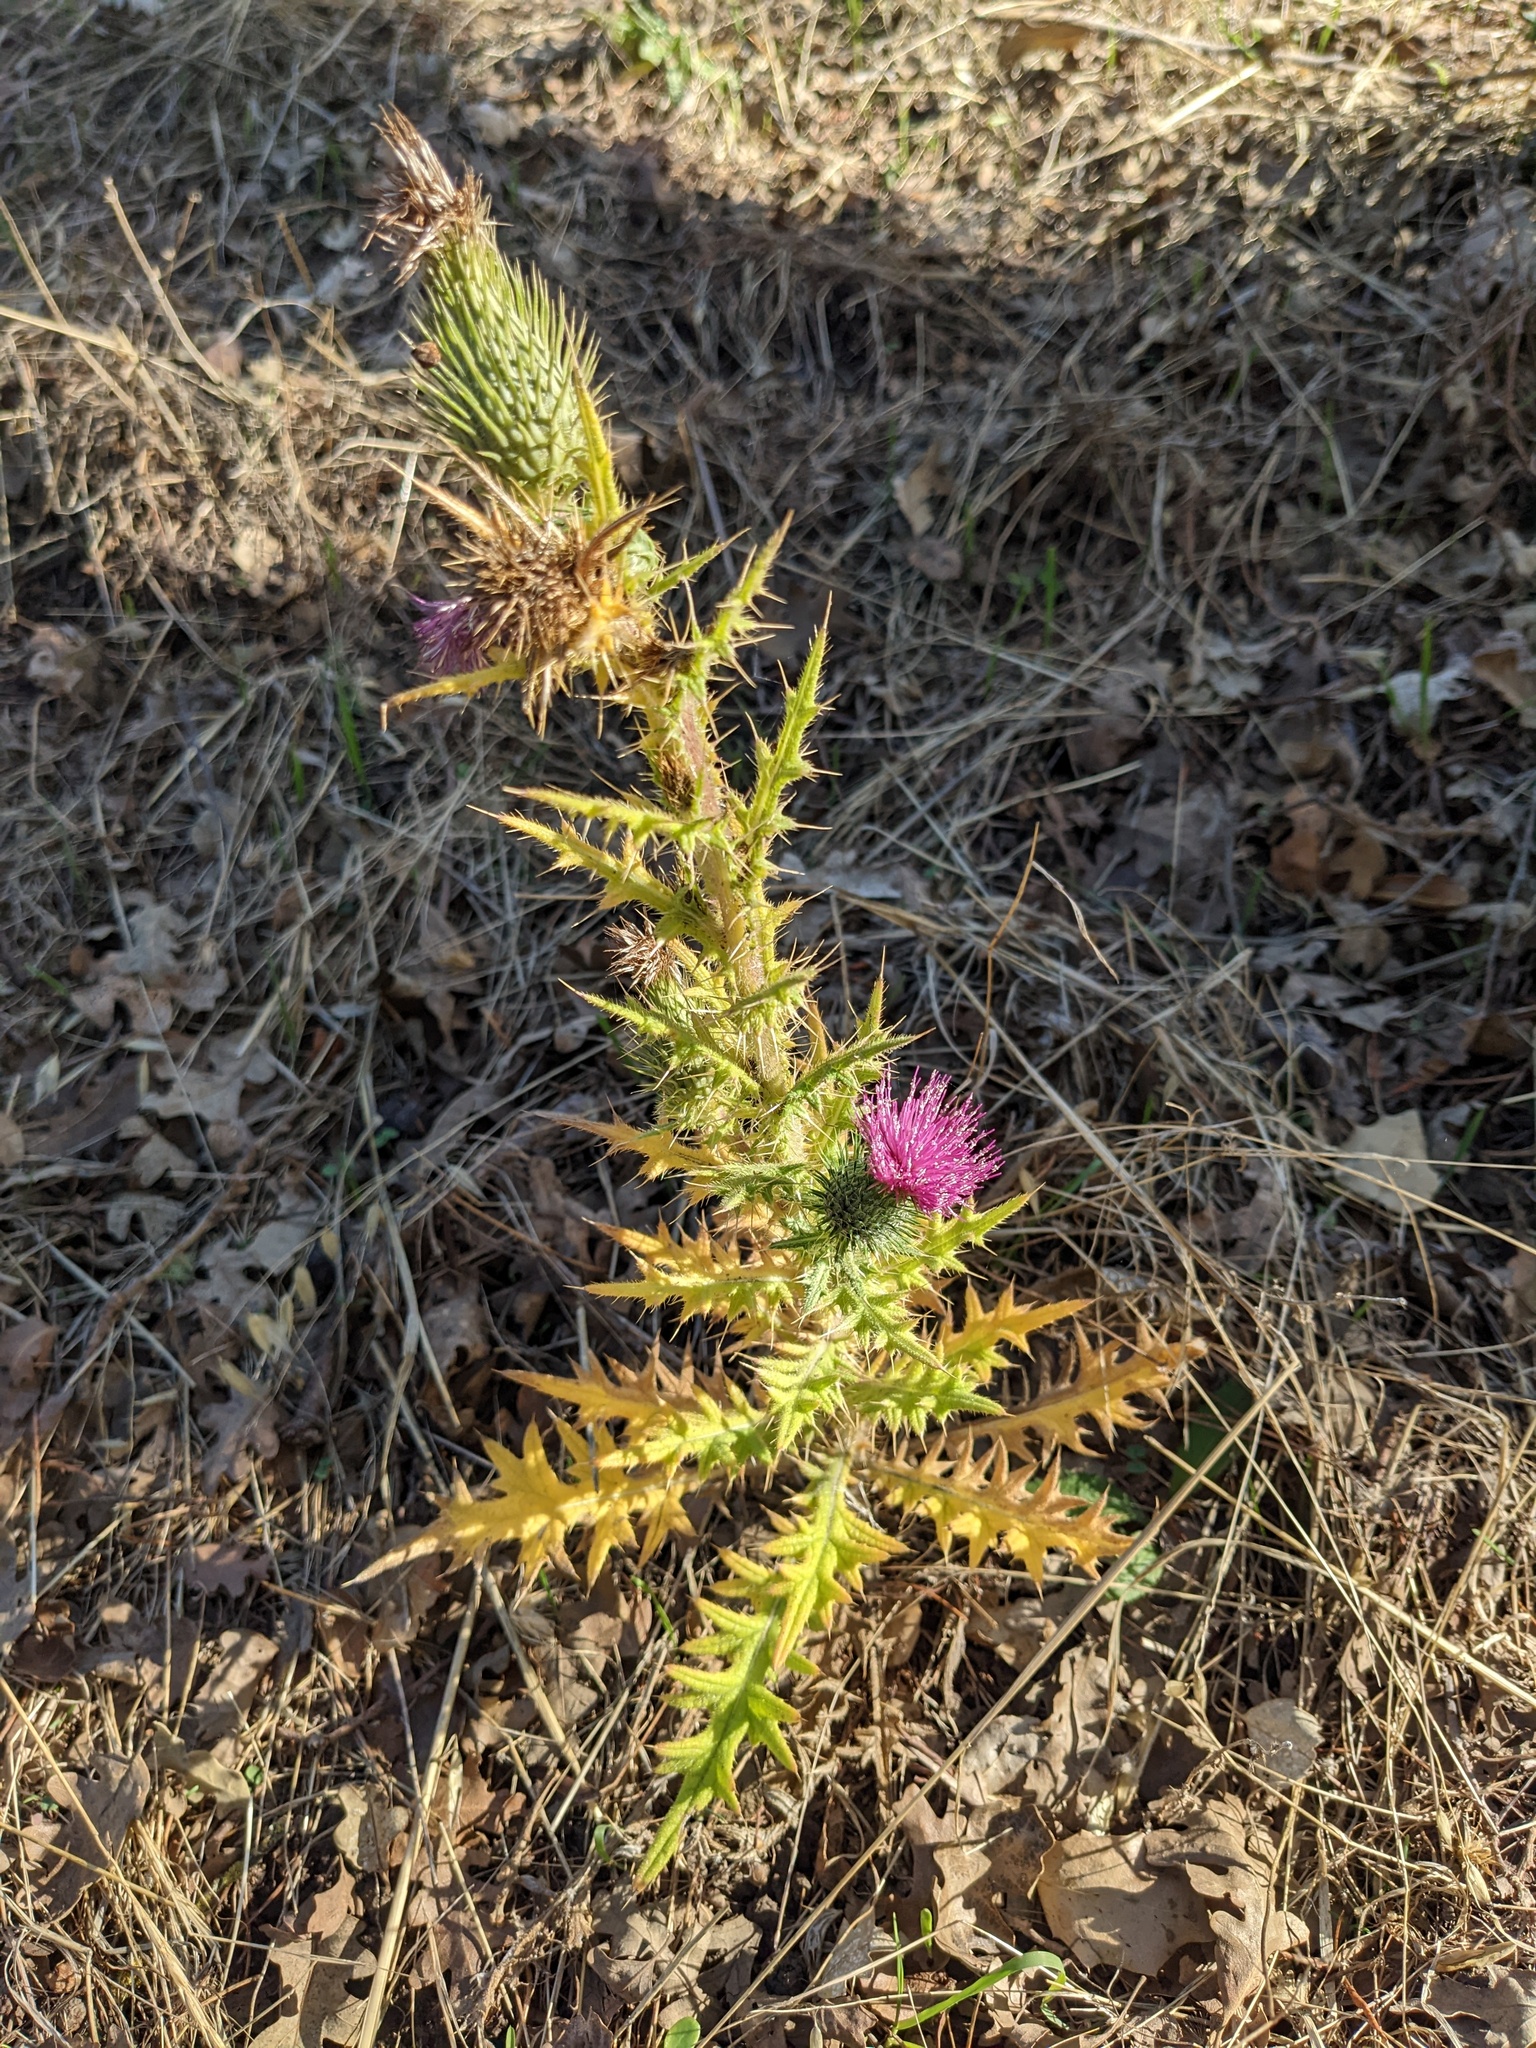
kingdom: Plantae
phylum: Tracheophyta
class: Magnoliopsida
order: Asterales
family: Asteraceae
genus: Cirsium
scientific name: Cirsium vulgare
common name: Bull thistle
